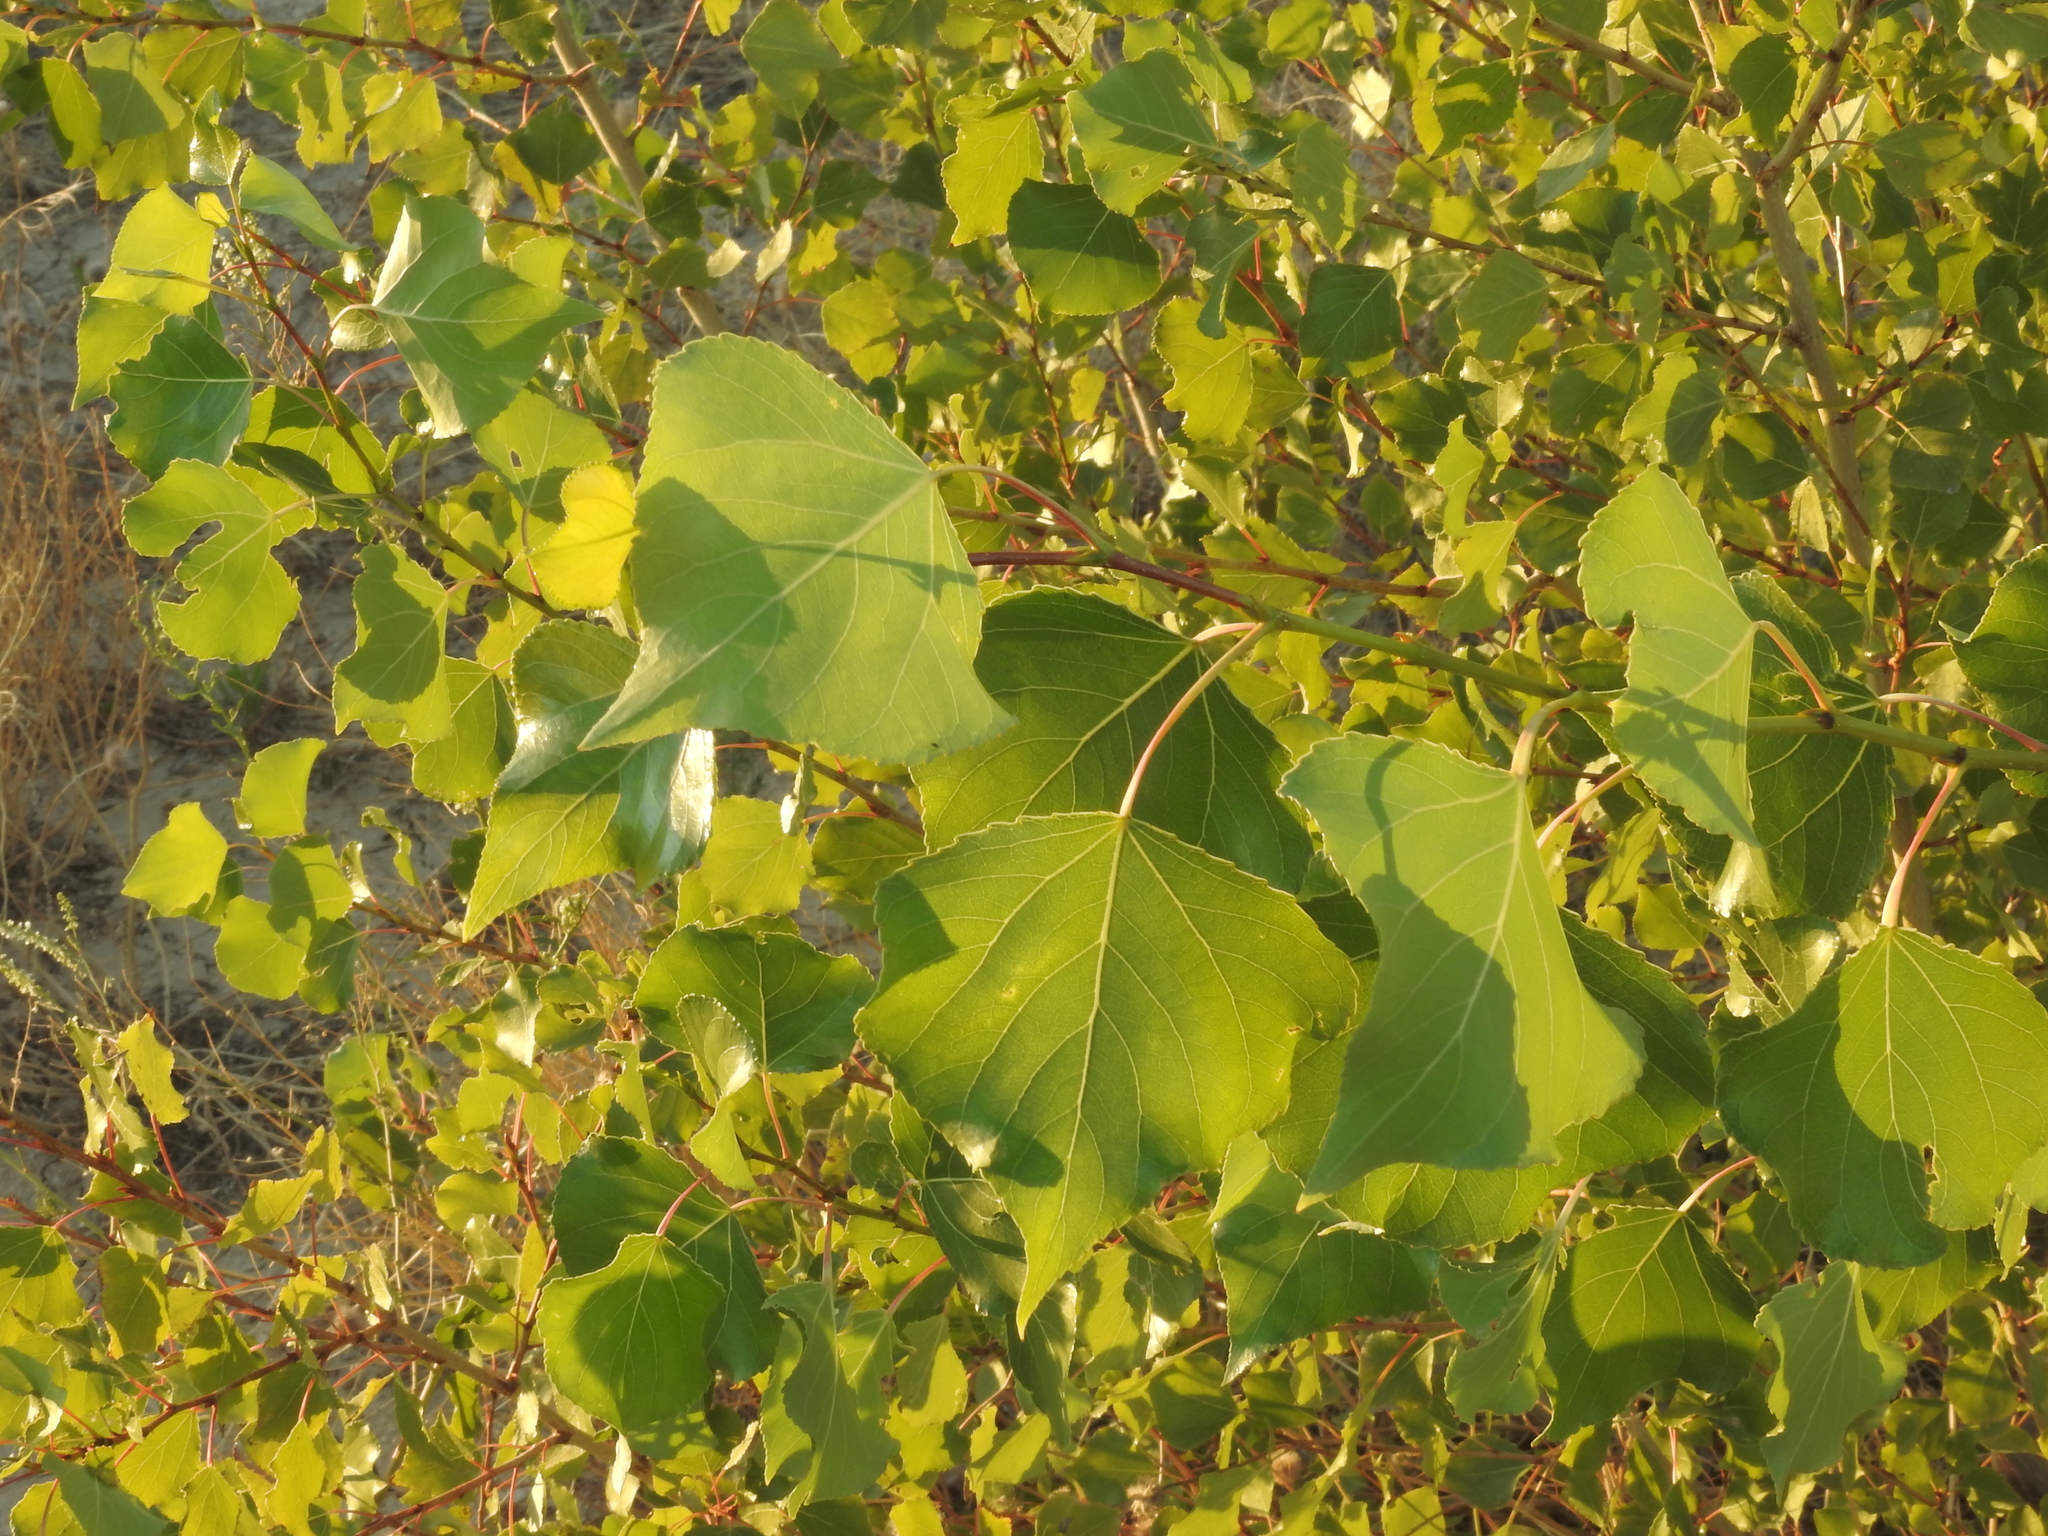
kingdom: Plantae
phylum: Tracheophyta
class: Magnoliopsida
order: Malpighiales
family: Salicaceae
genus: Populus
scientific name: Populus nigra
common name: Black poplar
